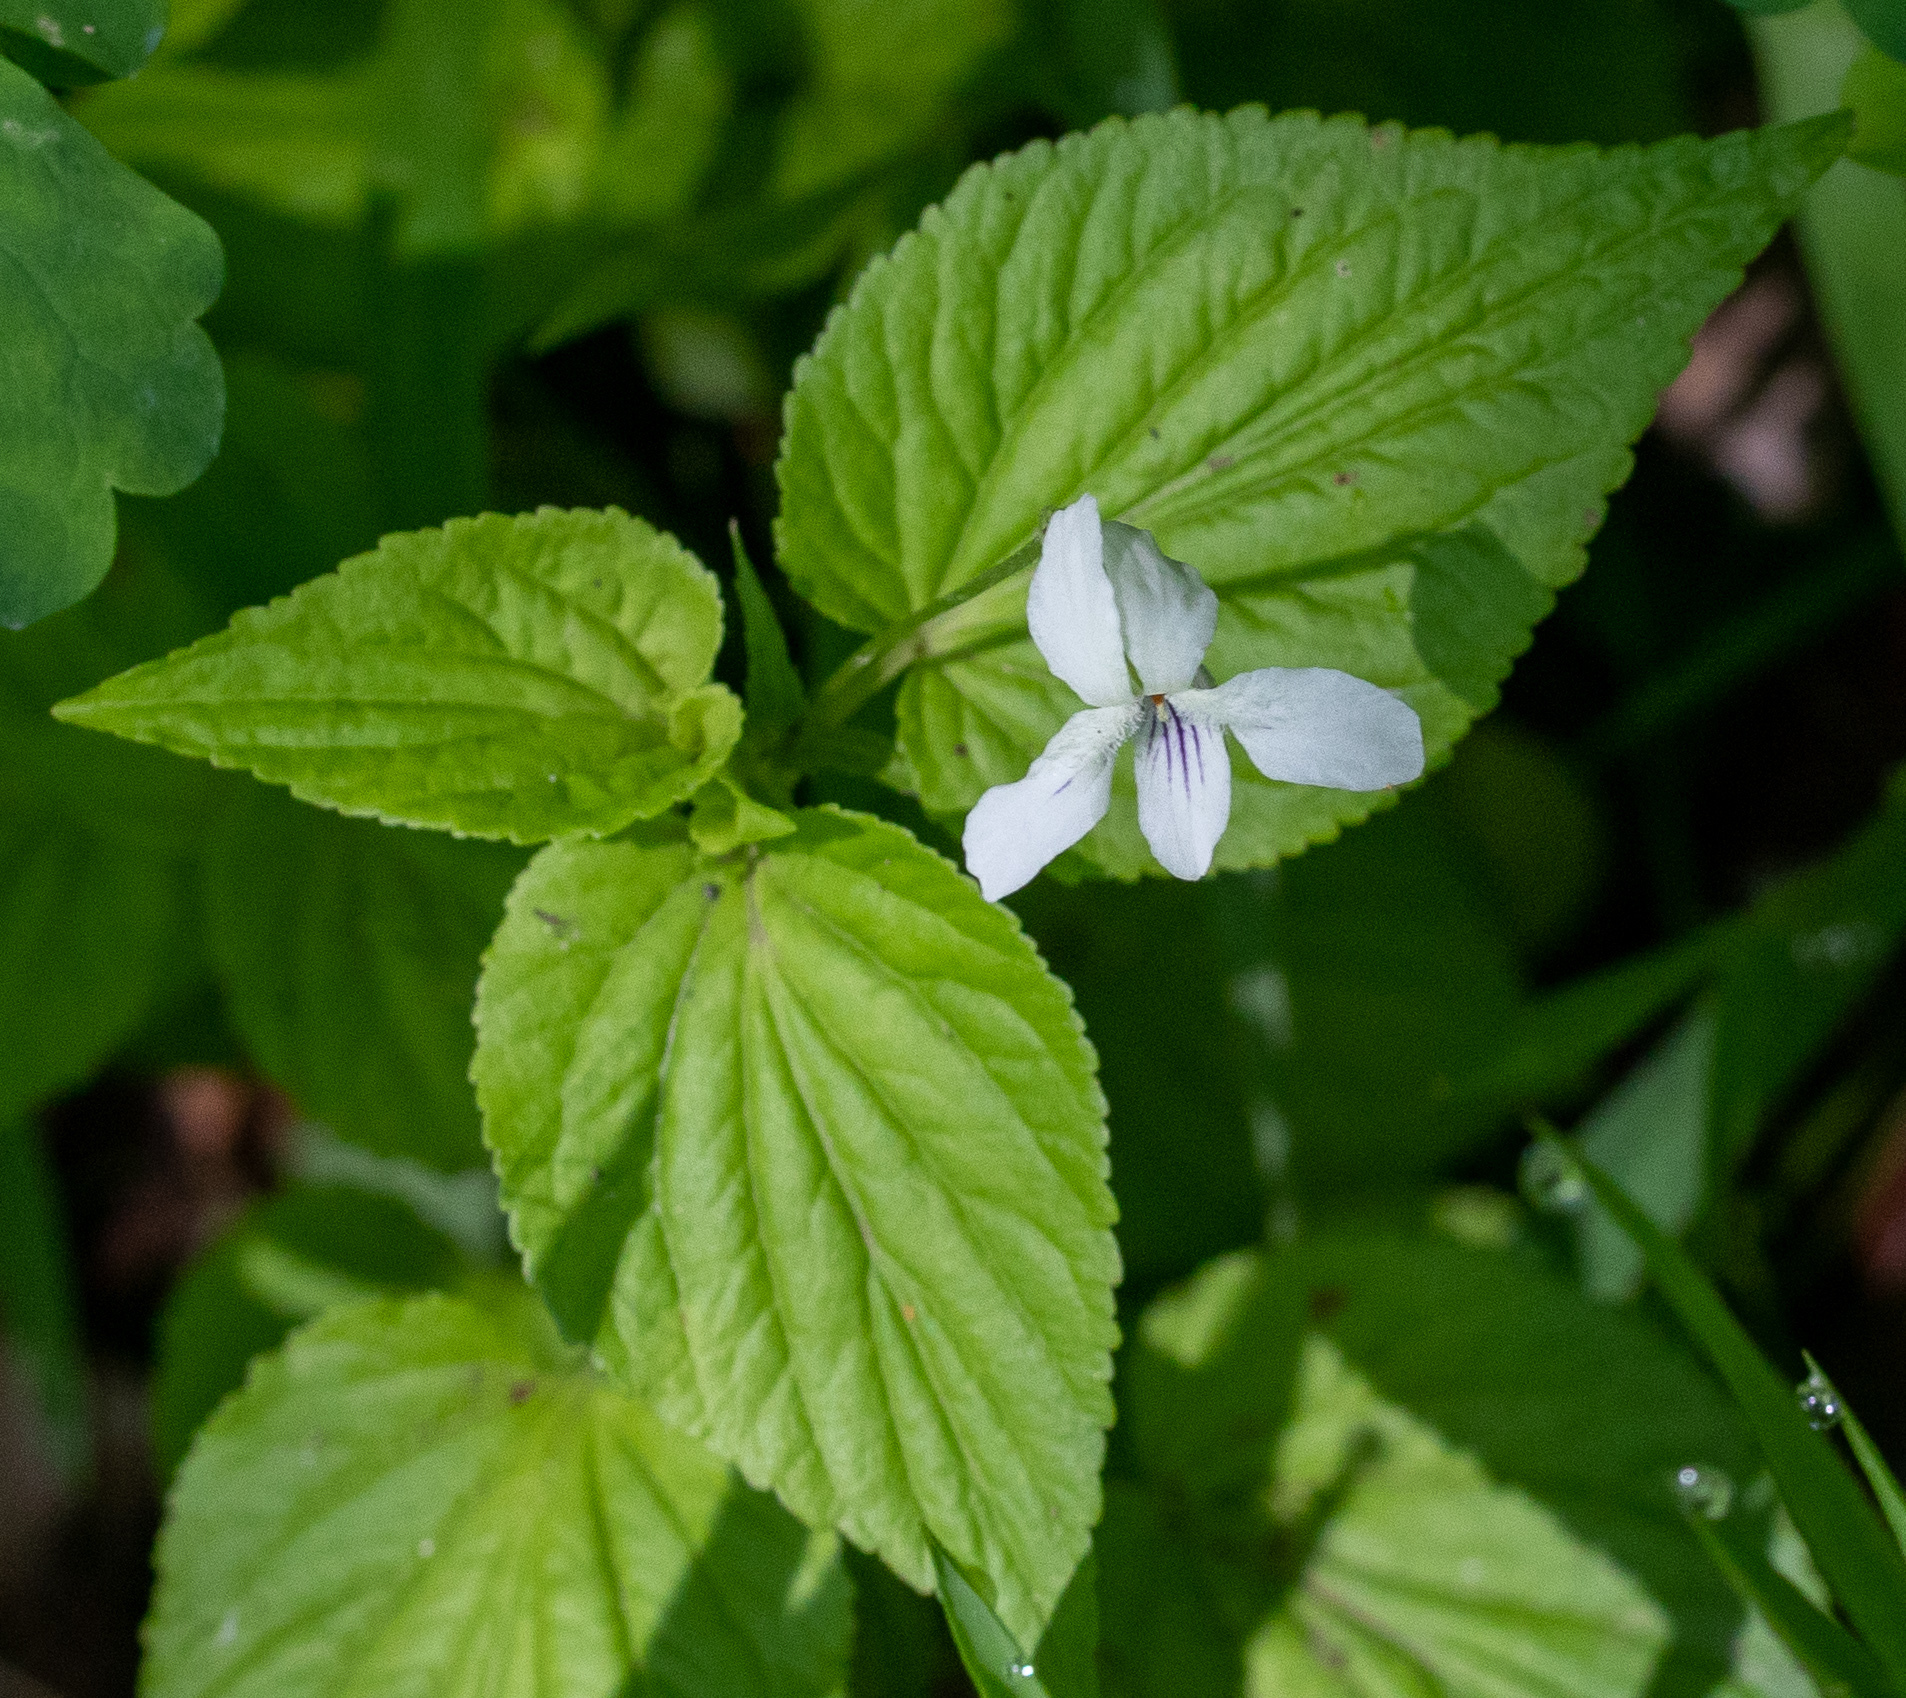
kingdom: Plantae
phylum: Tracheophyta
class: Magnoliopsida
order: Malpighiales
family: Violaceae
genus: Viola
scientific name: Viola striata
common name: Cream violet
